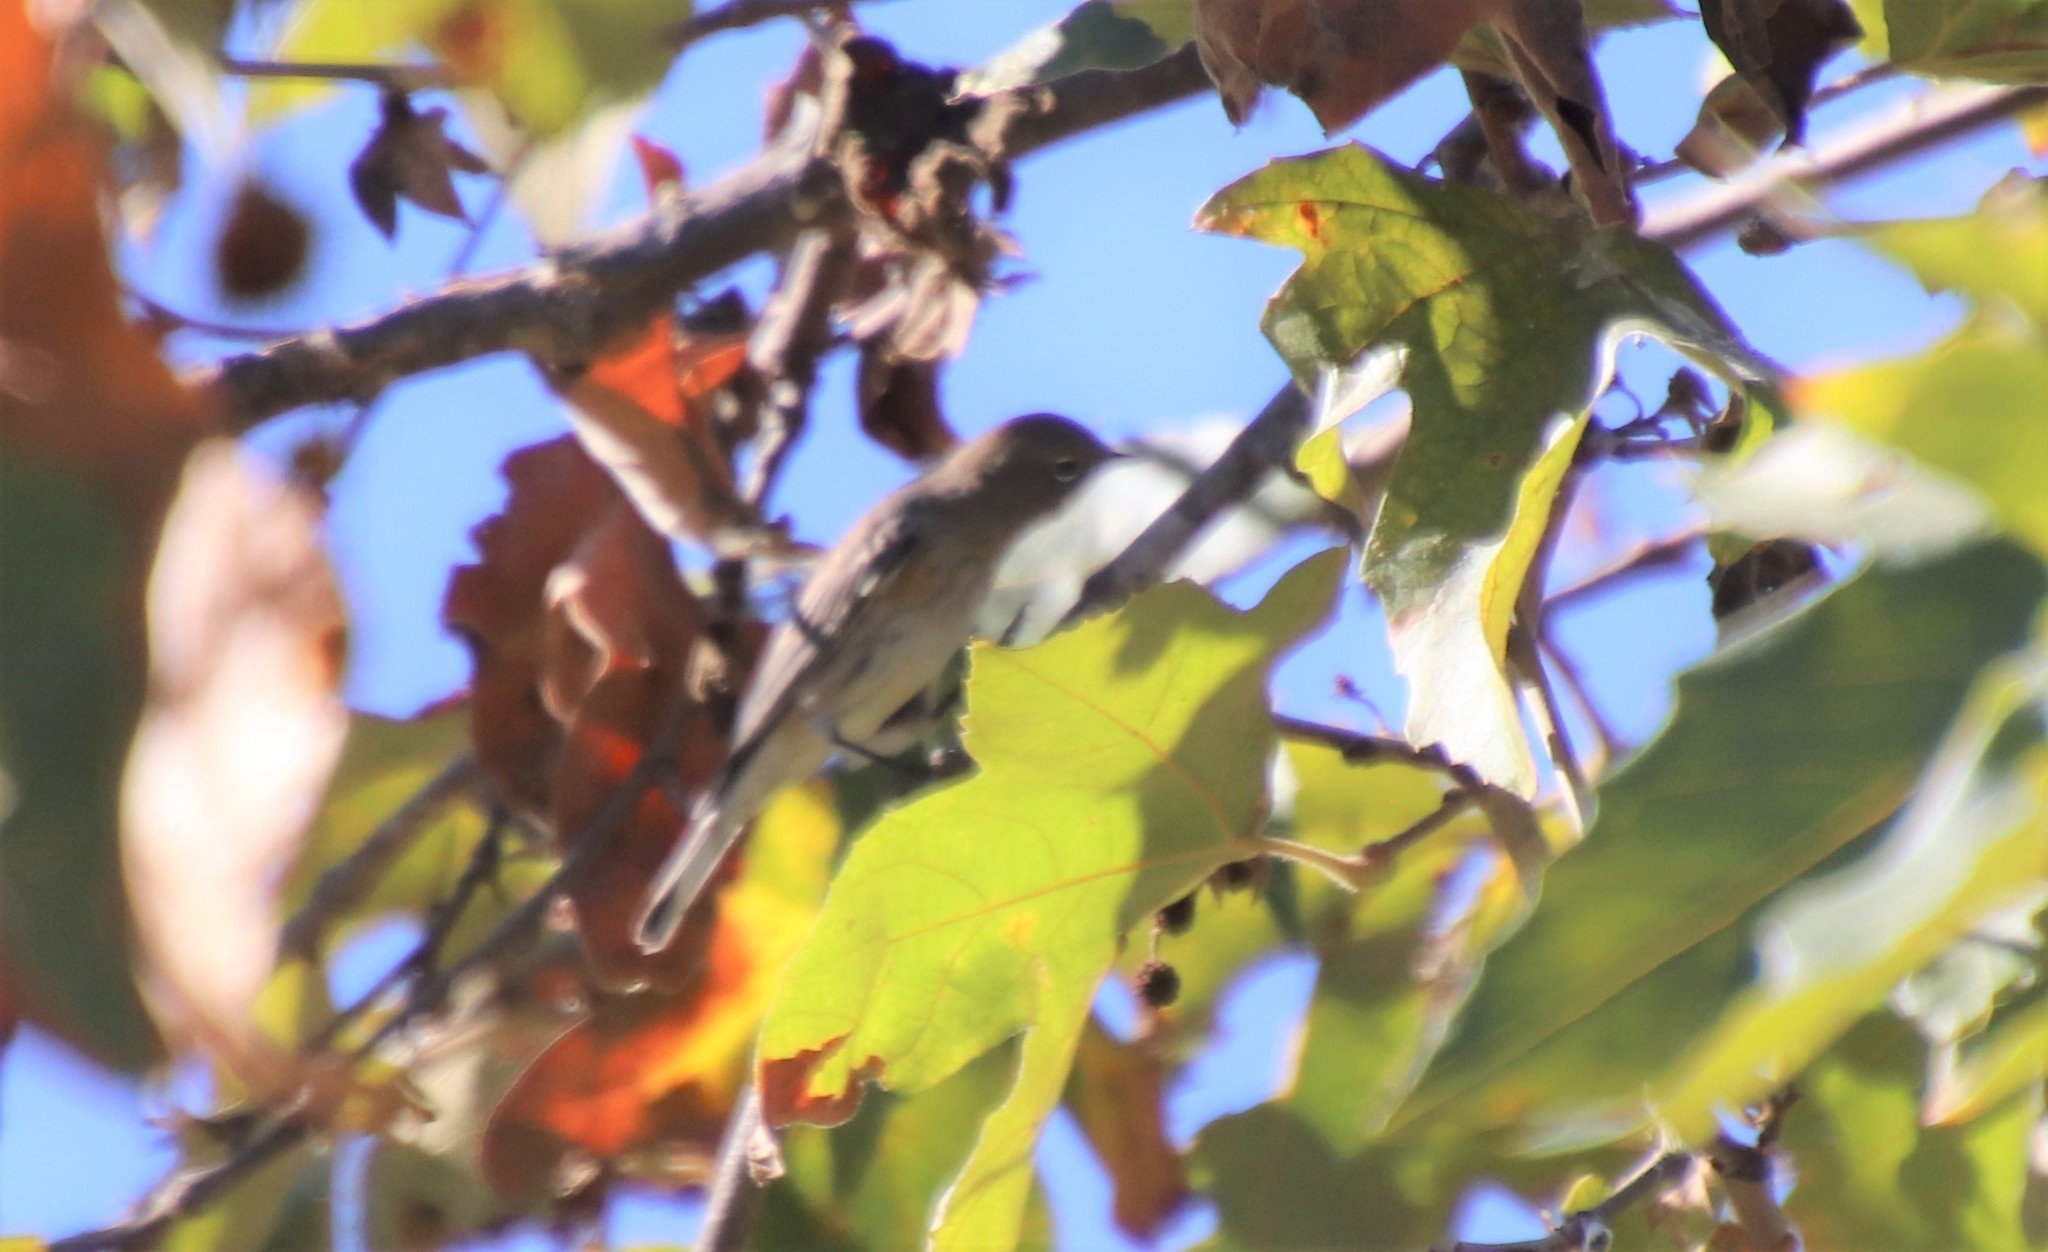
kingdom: Animalia
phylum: Chordata
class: Aves
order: Passeriformes
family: Parulidae
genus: Setophaga
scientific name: Setophaga coronata
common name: Myrtle warbler
